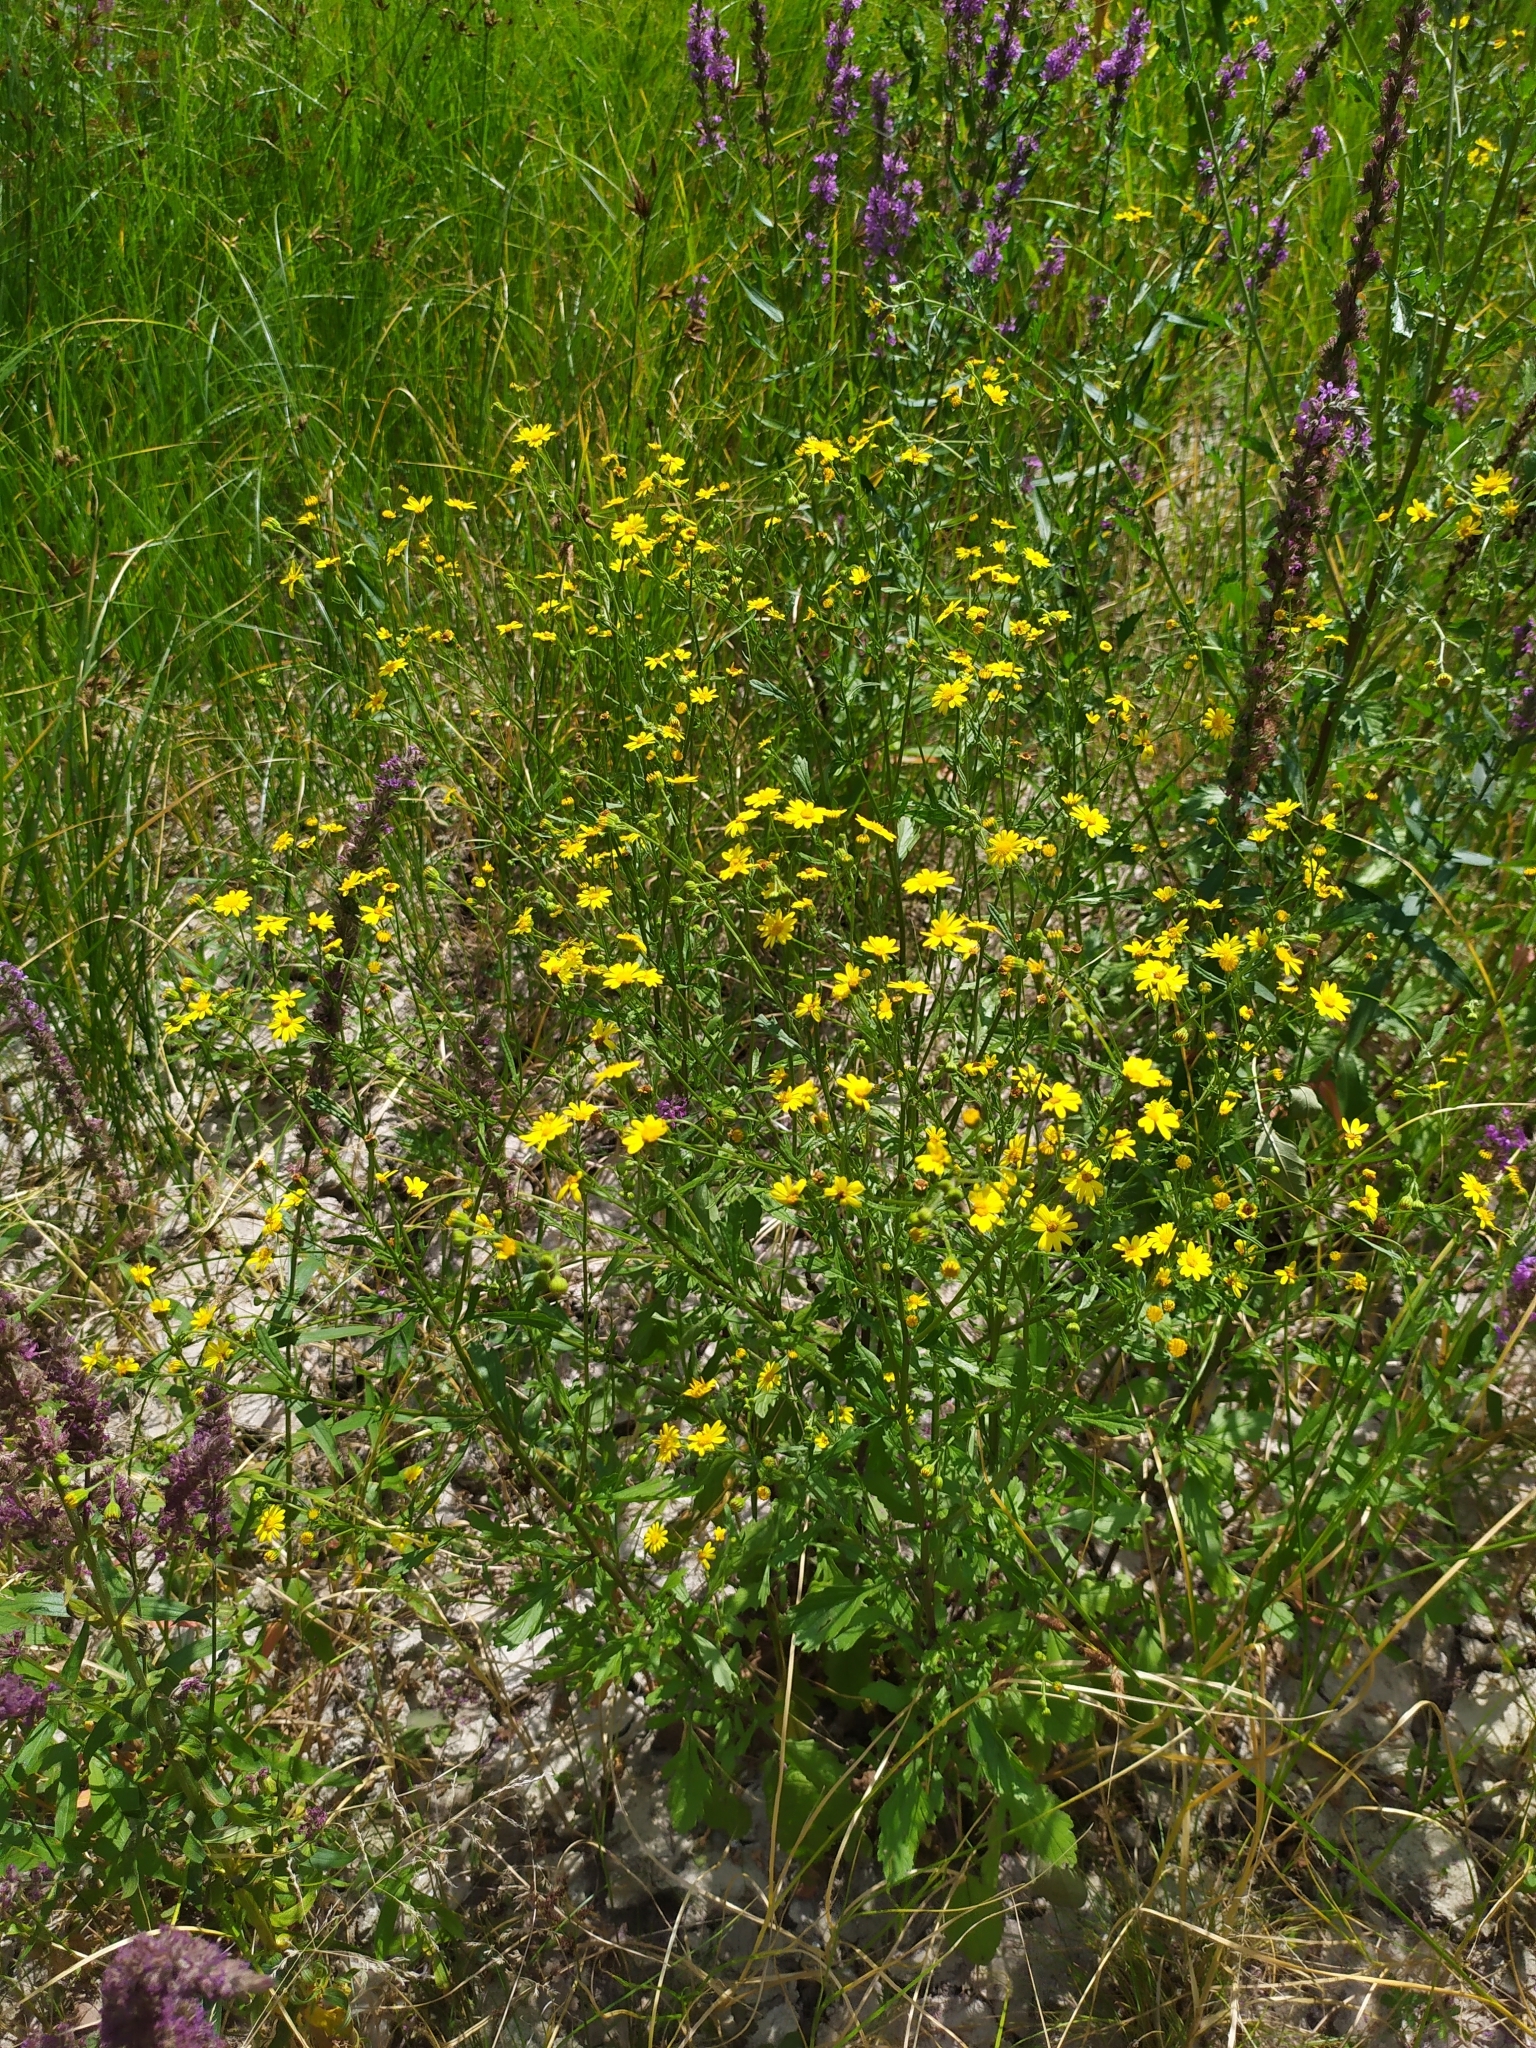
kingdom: Plantae
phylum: Tracheophyta
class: Magnoliopsida
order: Asterales
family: Asteraceae
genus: Jacobaea
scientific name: Jacobaea erratica
